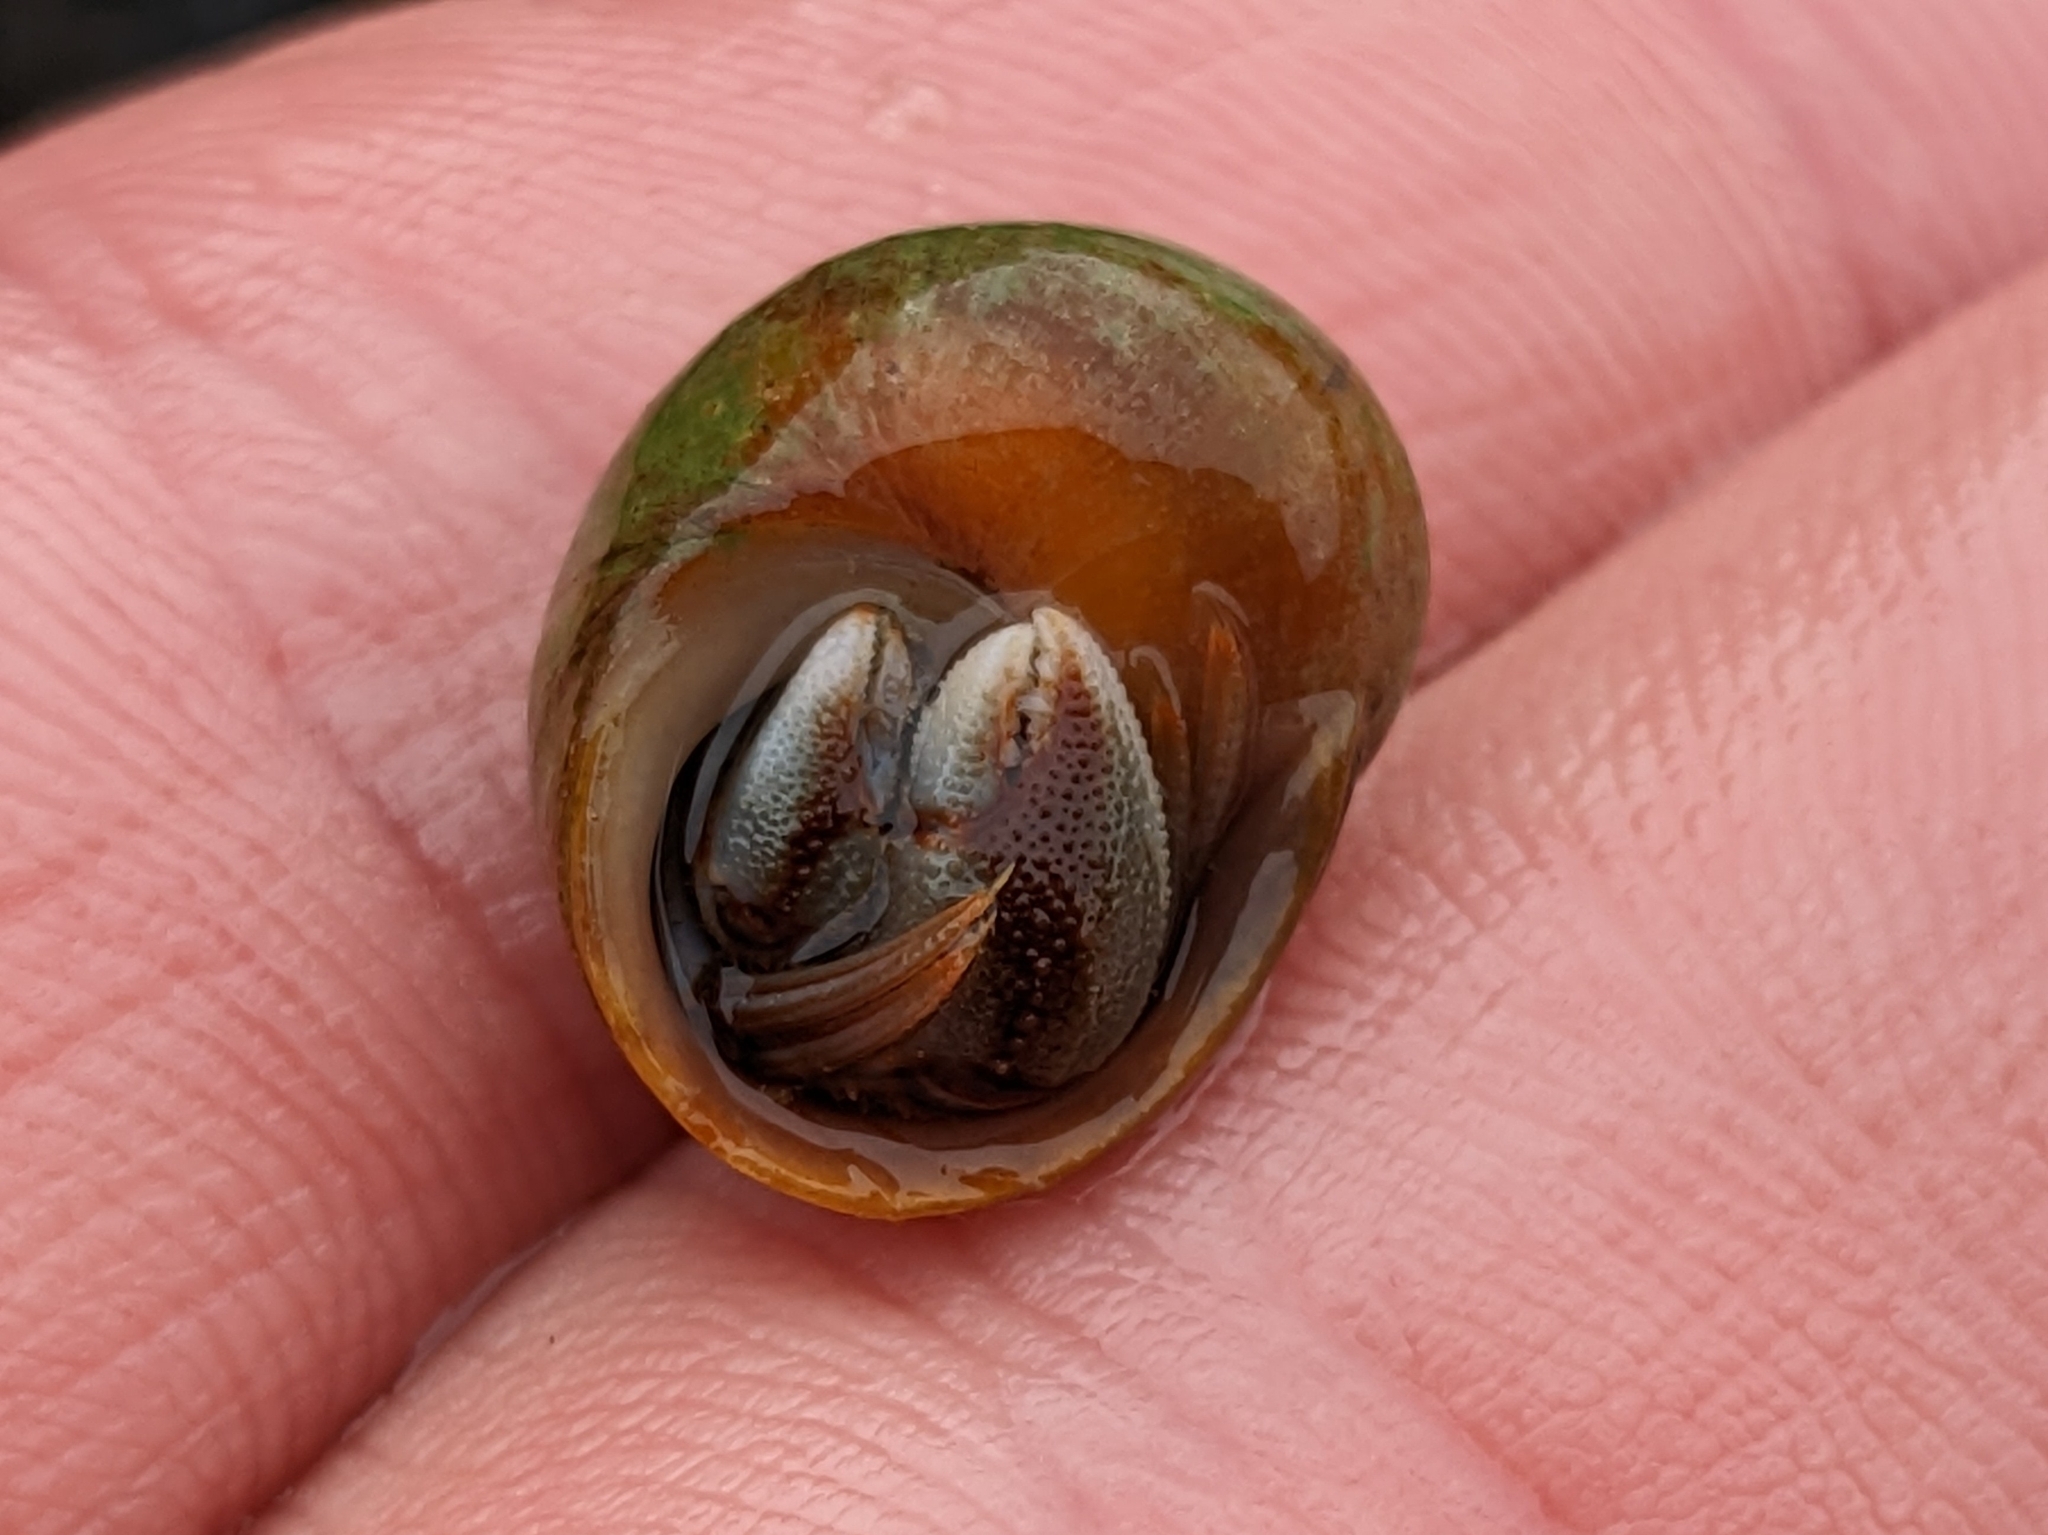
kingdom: Animalia
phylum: Arthropoda
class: Malacostraca
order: Decapoda
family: Paguridae
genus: Pagurus
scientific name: Pagurus bernhardus
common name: Hermit crab
